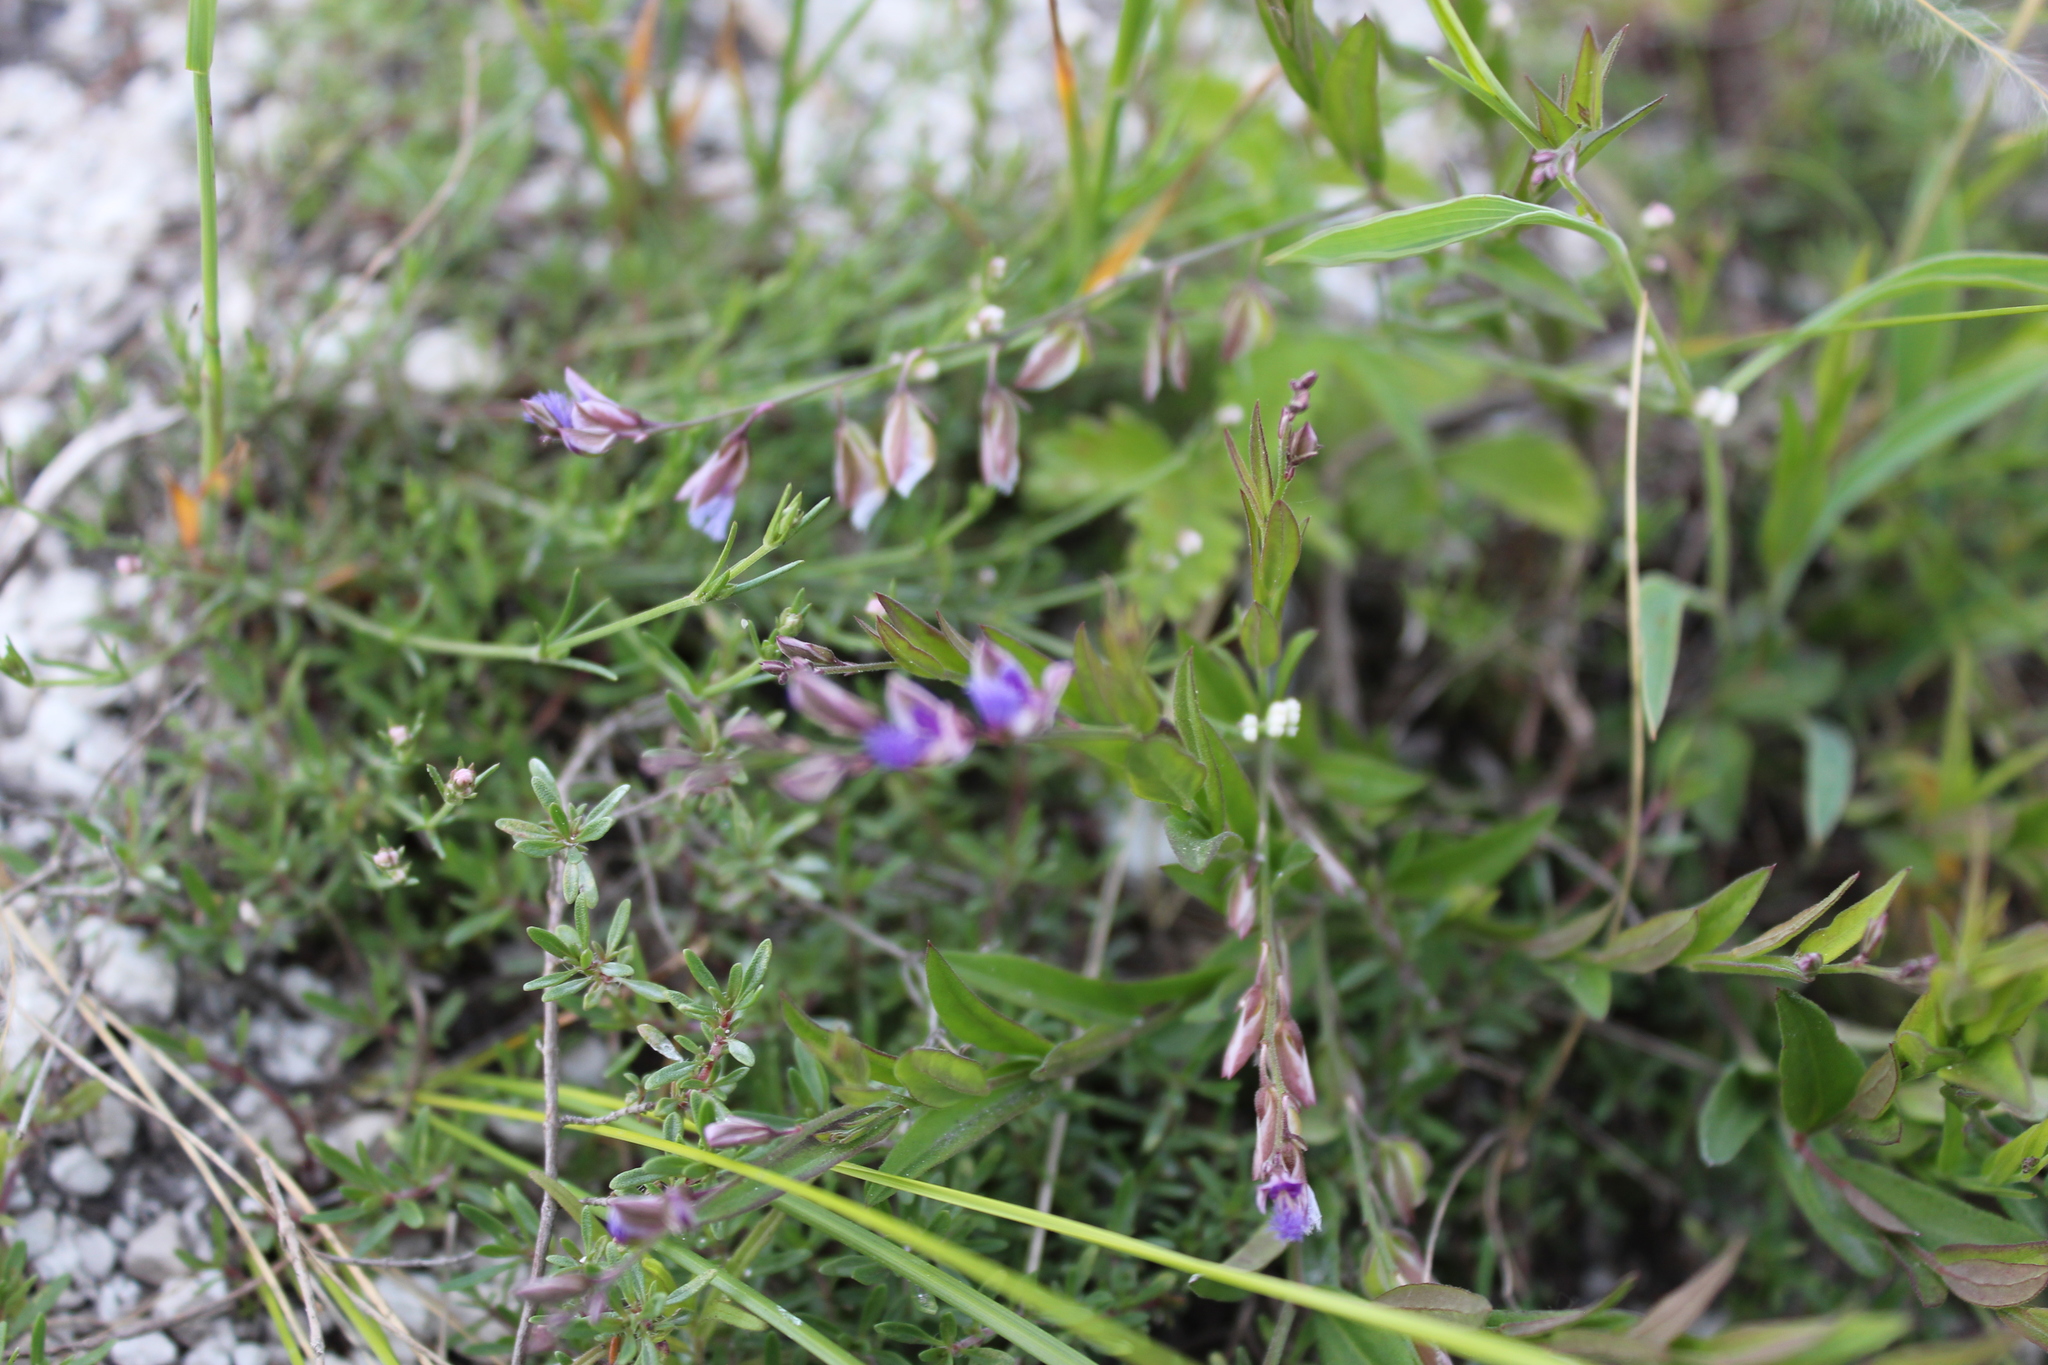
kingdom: Plantae
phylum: Tracheophyta
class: Magnoliopsida
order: Fabales
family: Polygalaceae
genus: Polygala
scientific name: Polygala sibirica
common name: Siberian polygala
